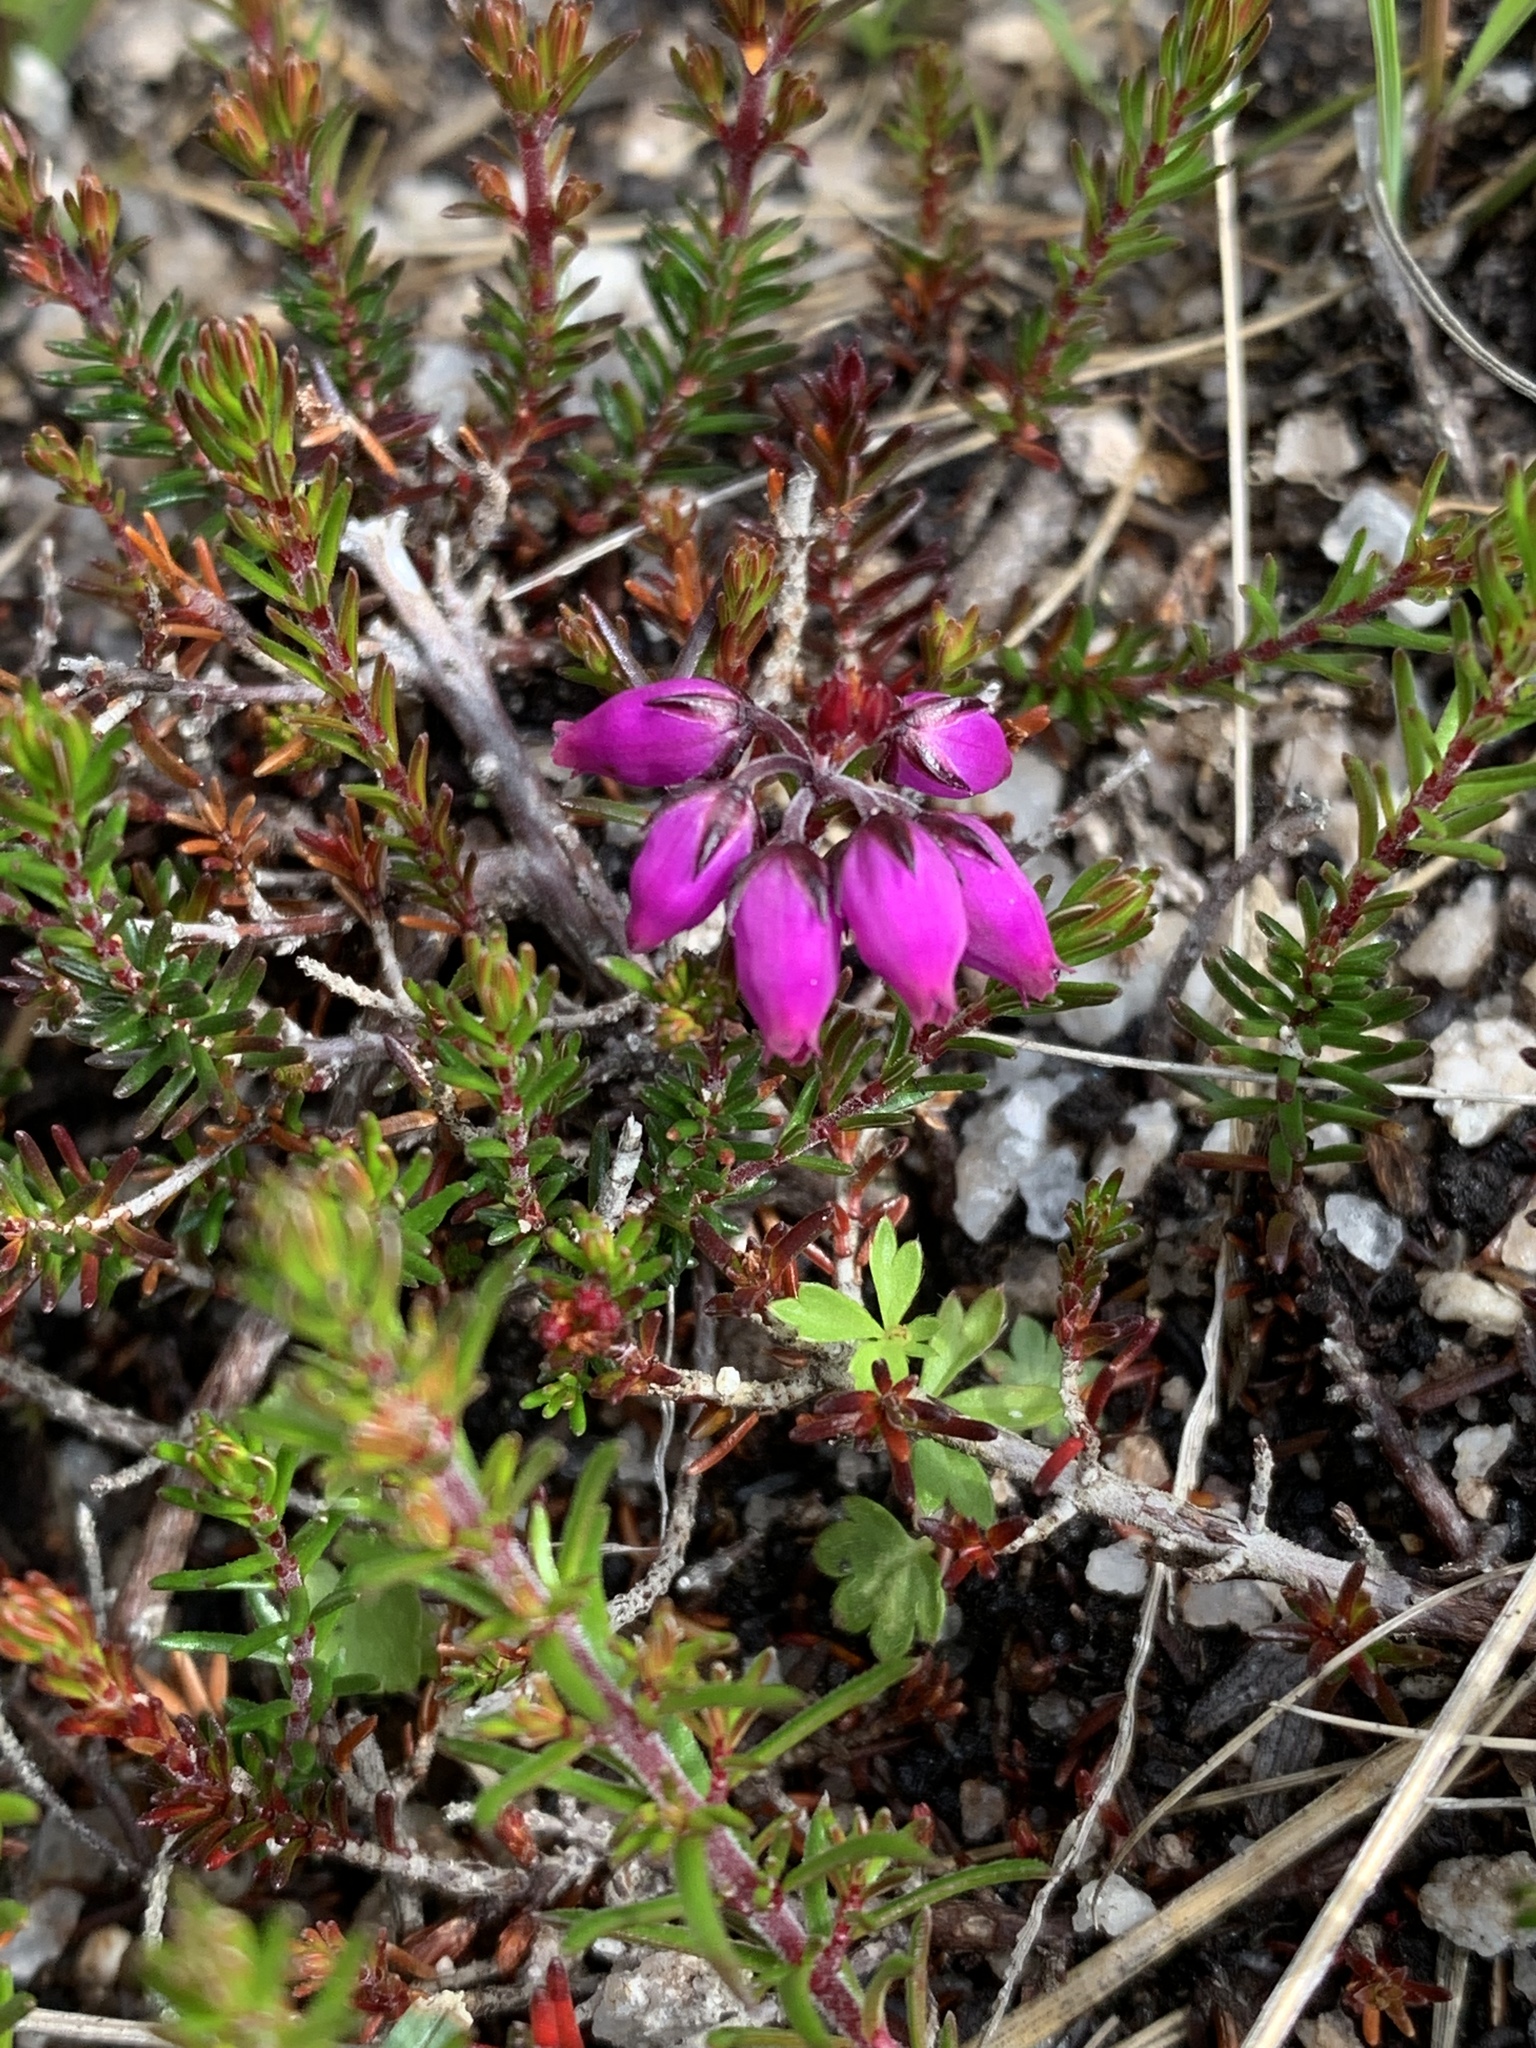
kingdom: Plantae
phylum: Tracheophyta
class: Magnoliopsida
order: Ericales
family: Ericaceae
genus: Erica
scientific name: Erica cinerea
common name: Bell heather
